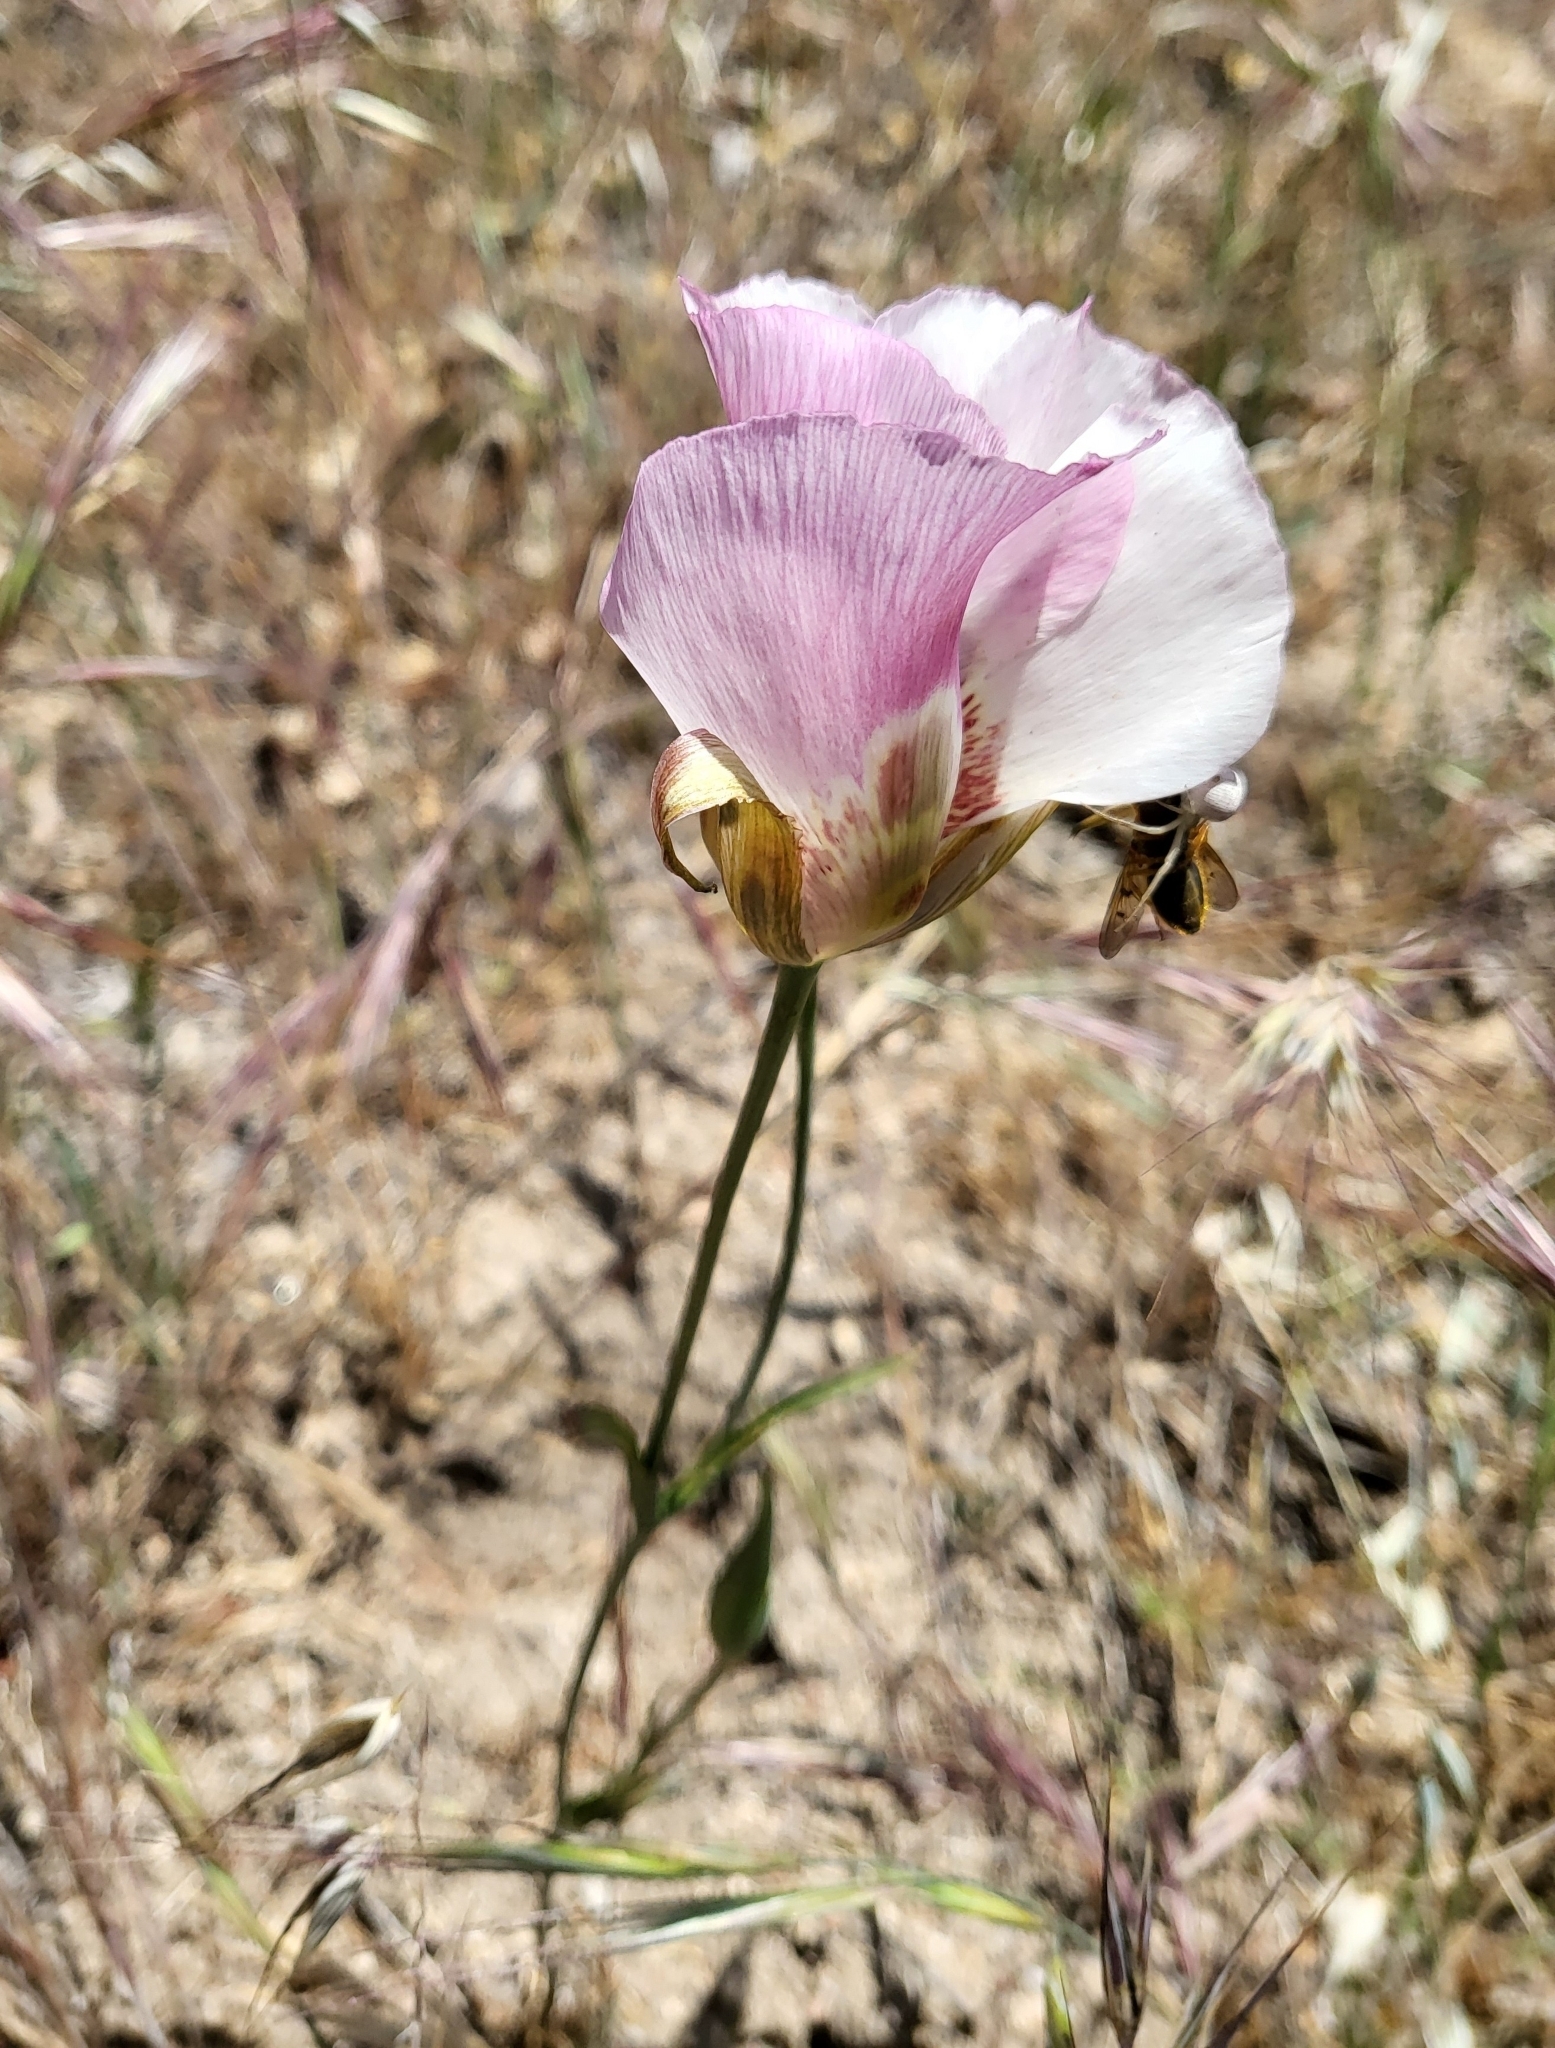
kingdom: Plantae
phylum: Tracheophyta
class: Liliopsida
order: Liliales
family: Liliaceae
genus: Calochortus
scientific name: Calochortus venustus
